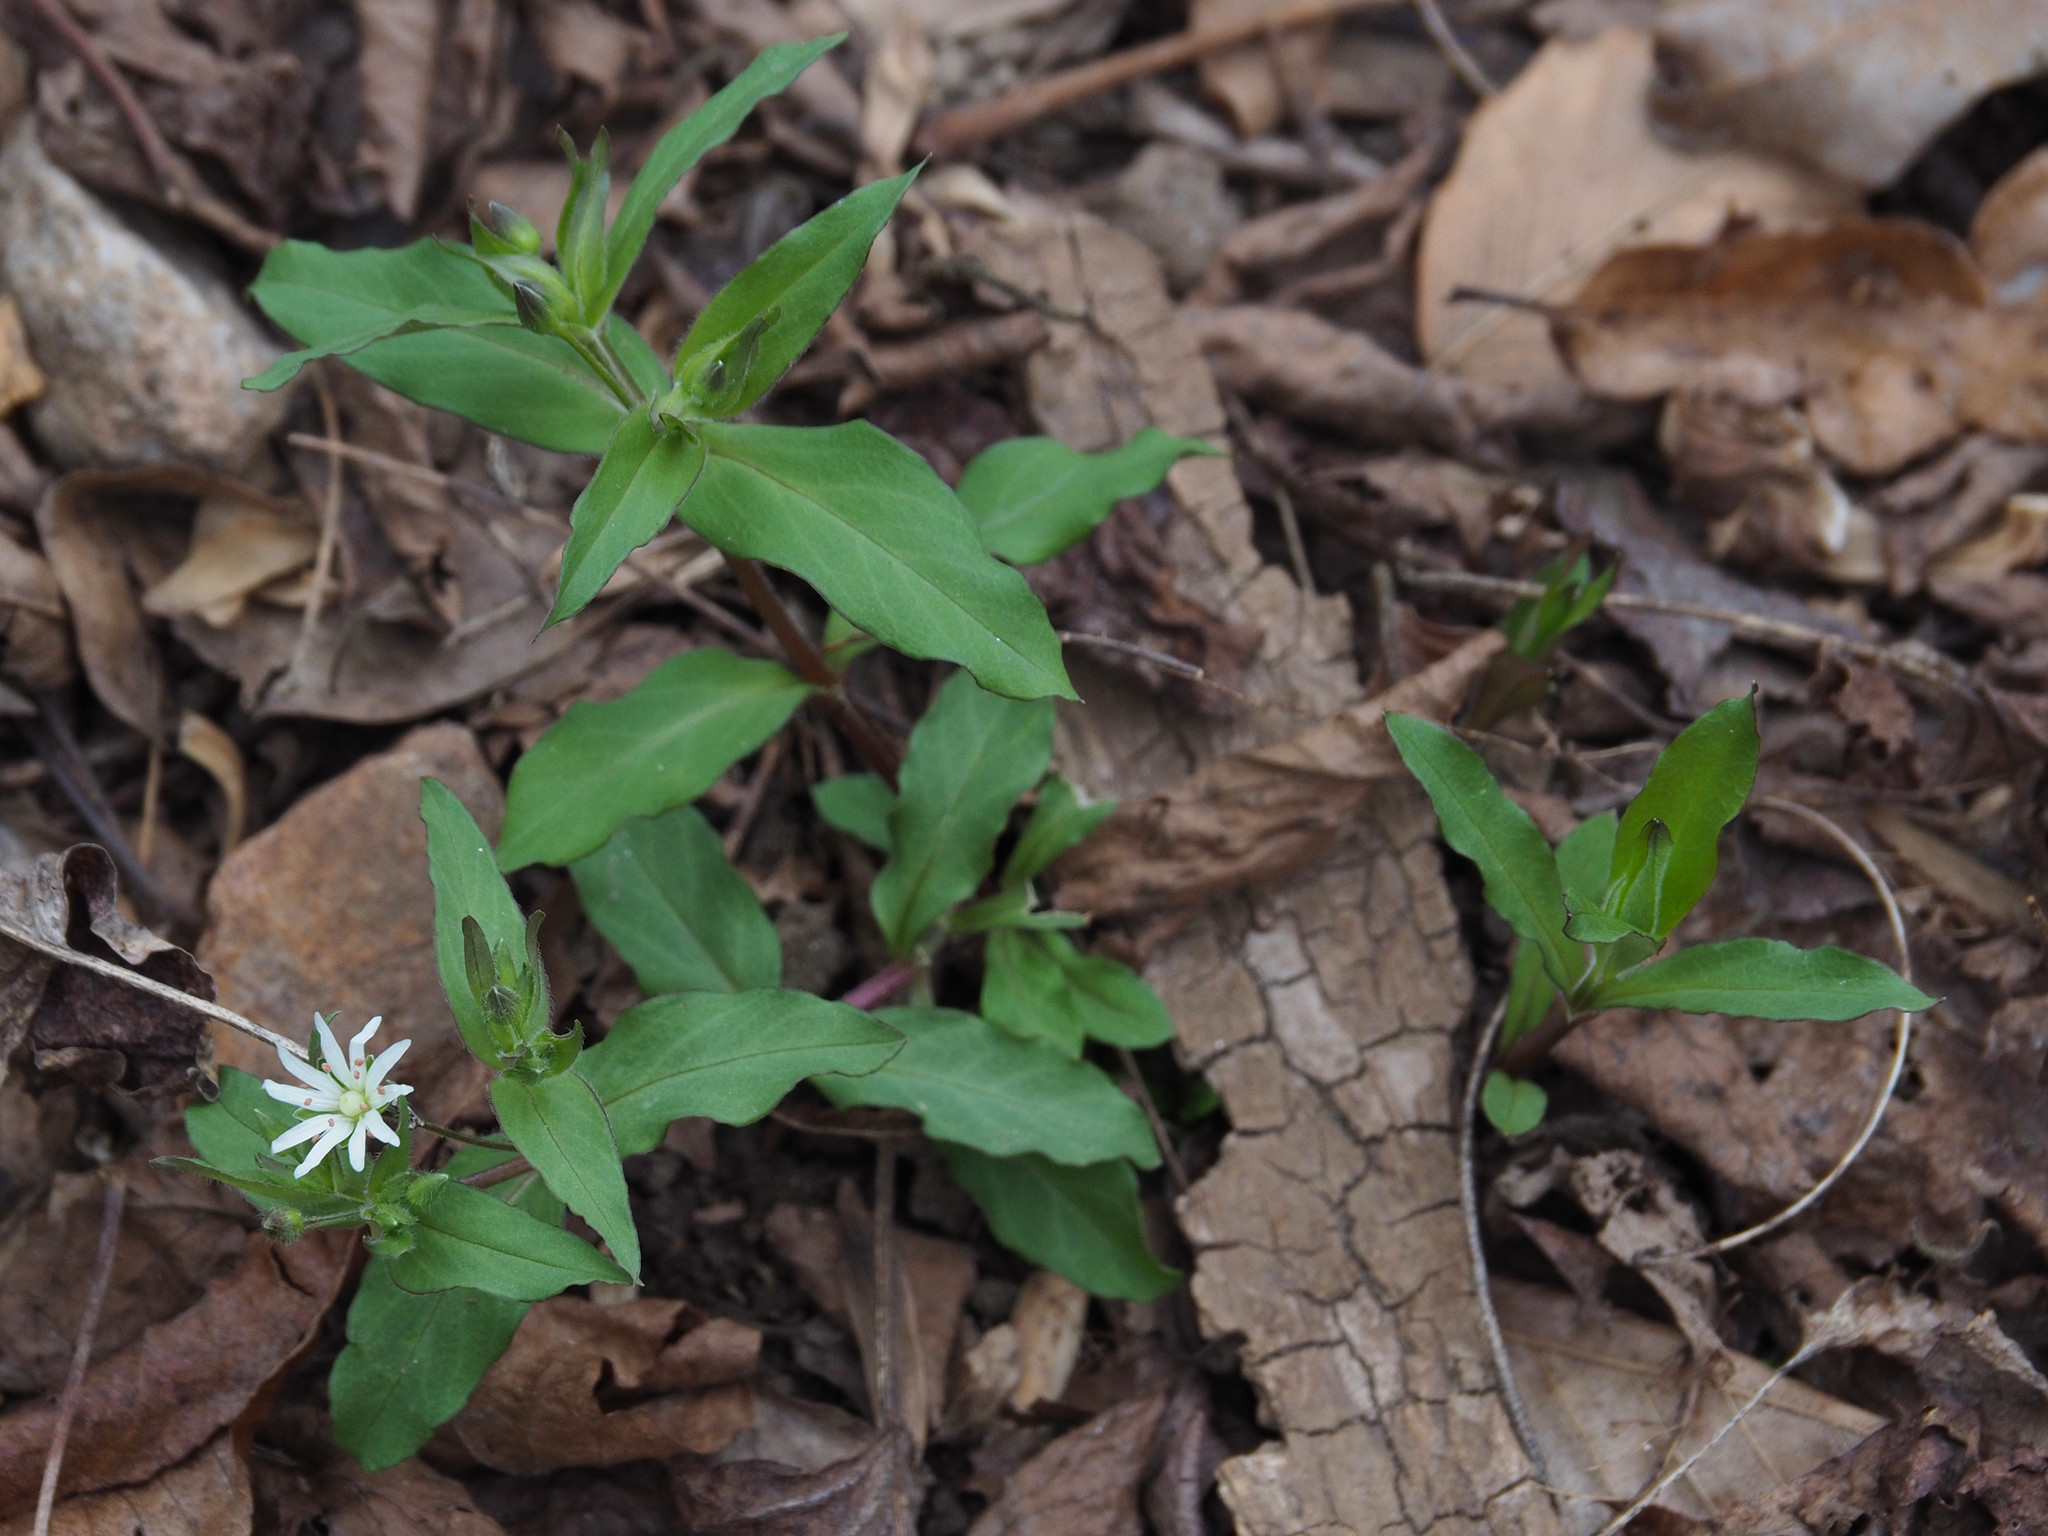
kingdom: Plantae
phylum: Tracheophyta
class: Magnoliopsida
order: Caryophyllales
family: Caryophyllaceae
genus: Stellaria
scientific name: Stellaria media
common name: Common chickweed
